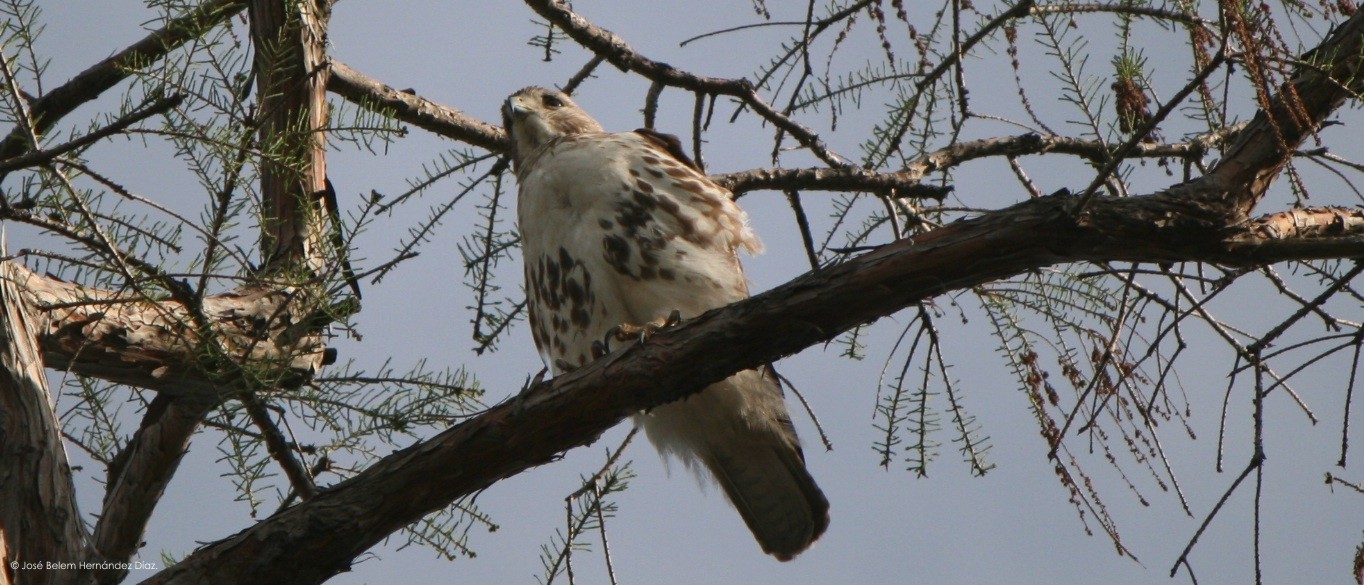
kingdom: Animalia
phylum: Chordata
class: Aves
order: Accipitriformes
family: Accipitridae
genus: Buteo
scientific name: Buteo jamaicensis
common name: Red-tailed hawk
